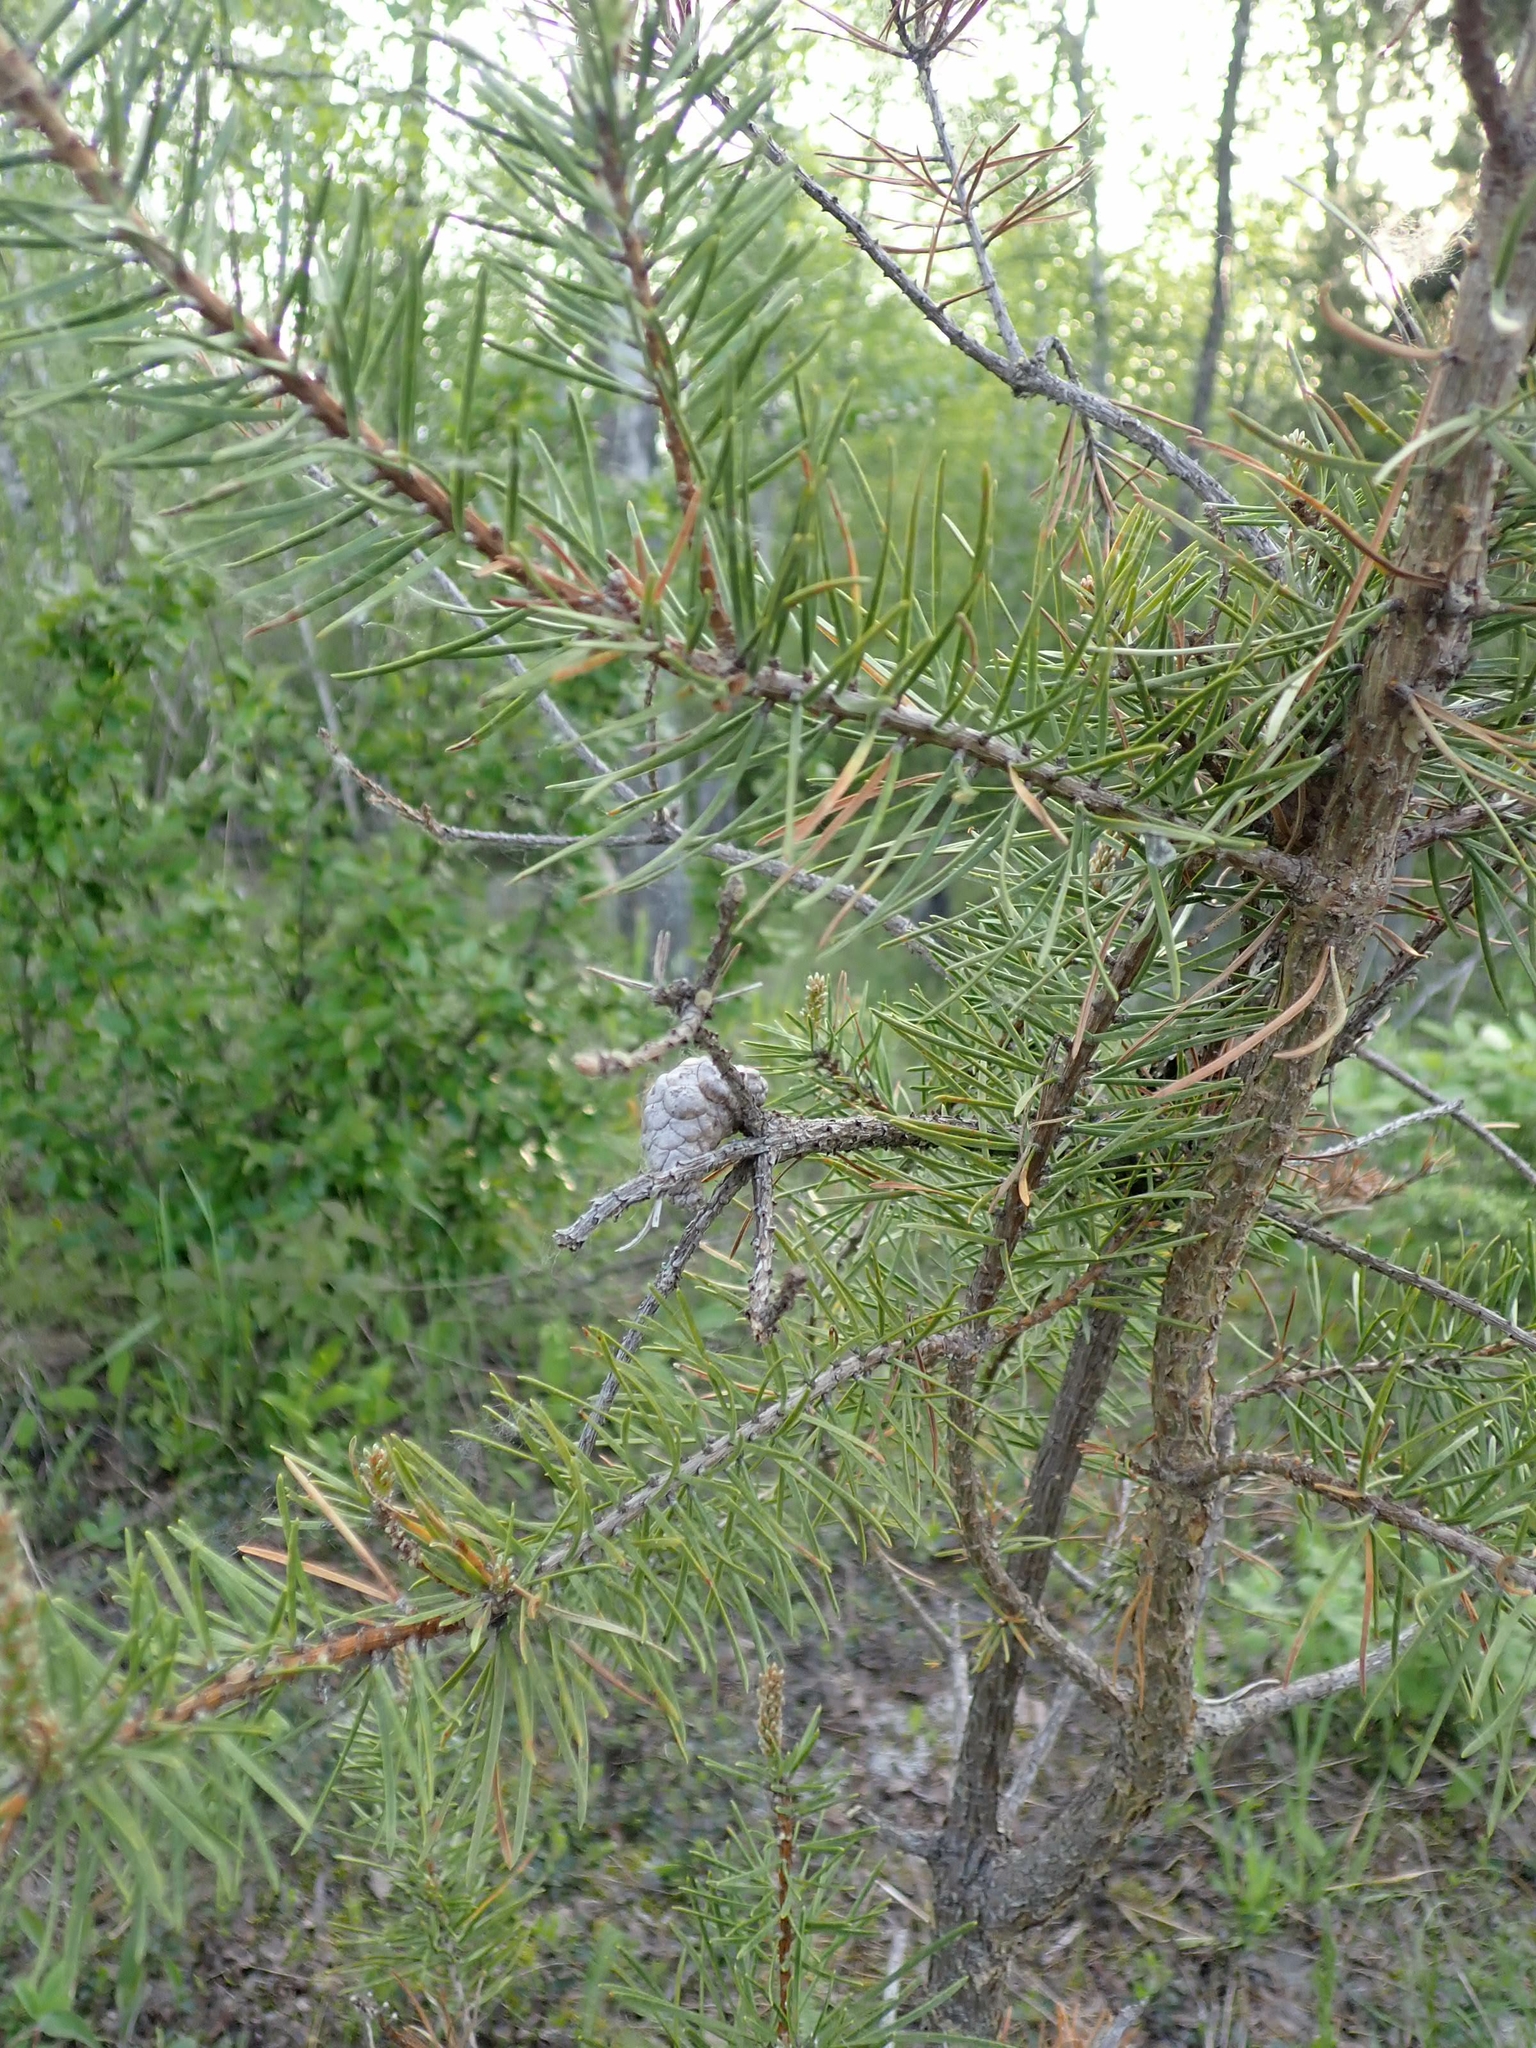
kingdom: Plantae
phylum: Tracheophyta
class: Pinopsida
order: Pinales
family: Pinaceae
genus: Pinus
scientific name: Pinus banksiana
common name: Jack pine
